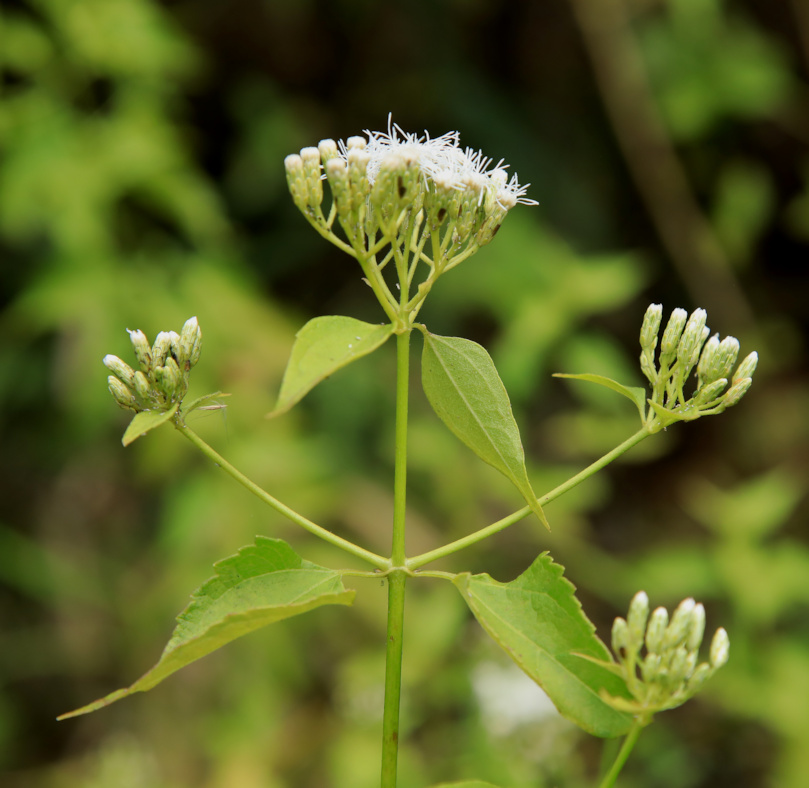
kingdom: Plantae
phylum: Tracheophyta
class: Magnoliopsida
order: Asterales
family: Asteraceae
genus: Chromolaena
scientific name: Chromolaena odorata
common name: Siamweed
